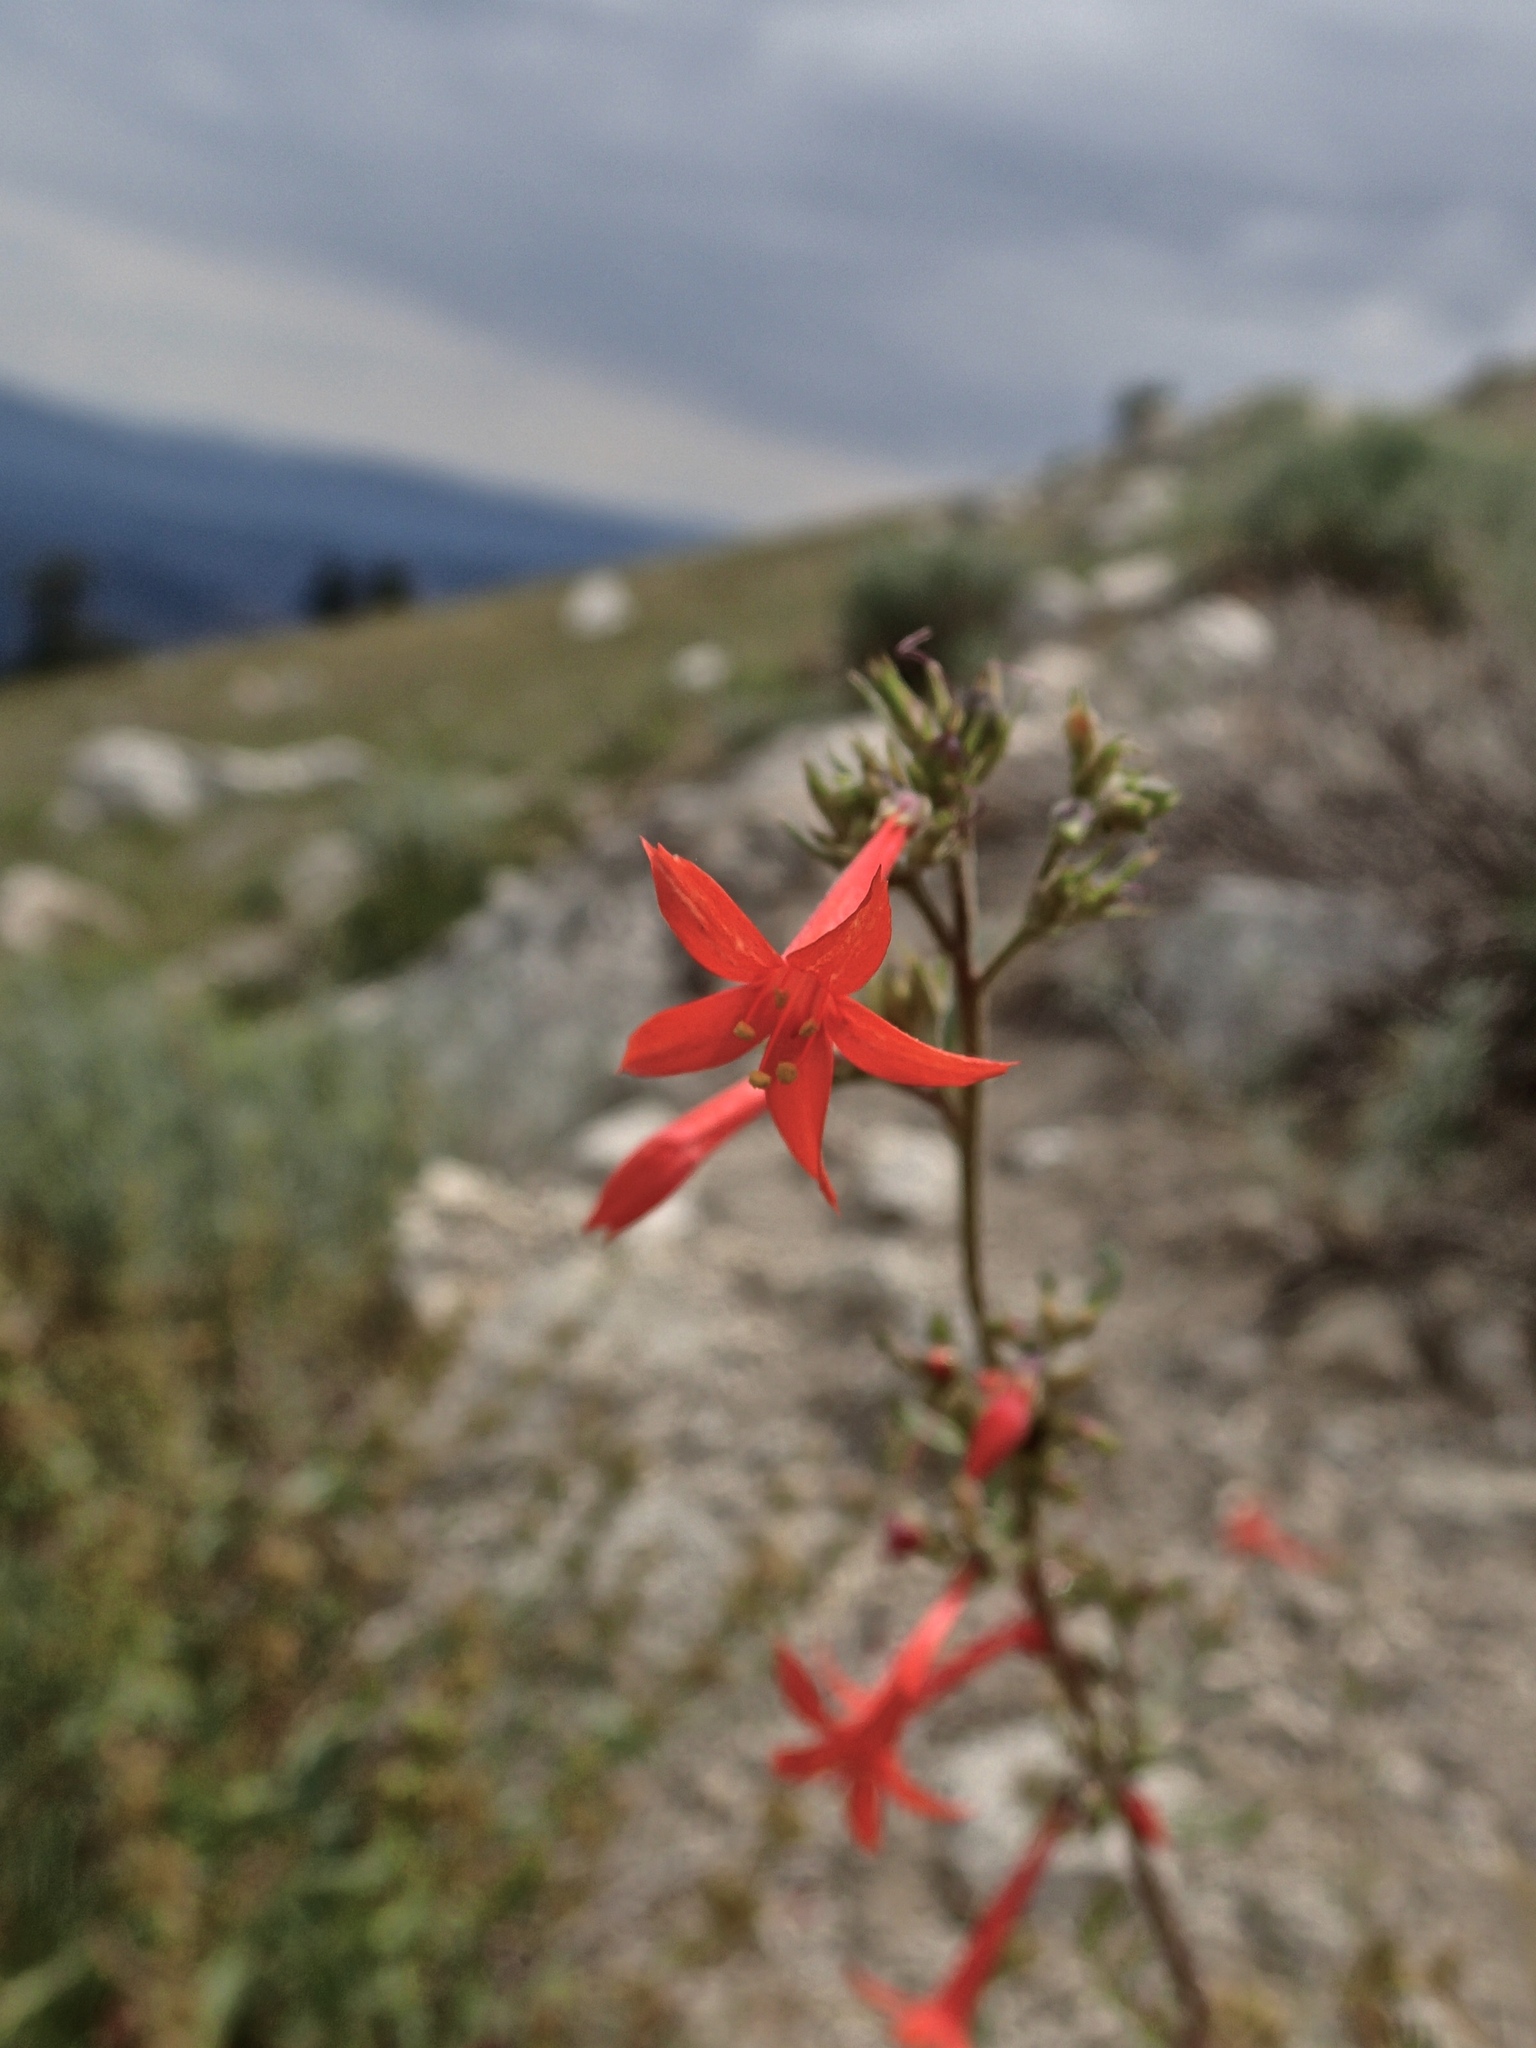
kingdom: Plantae
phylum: Tracheophyta
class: Magnoliopsida
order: Ericales
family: Polemoniaceae
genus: Ipomopsis
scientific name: Ipomopsis aggregata
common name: Scarlet gilia
